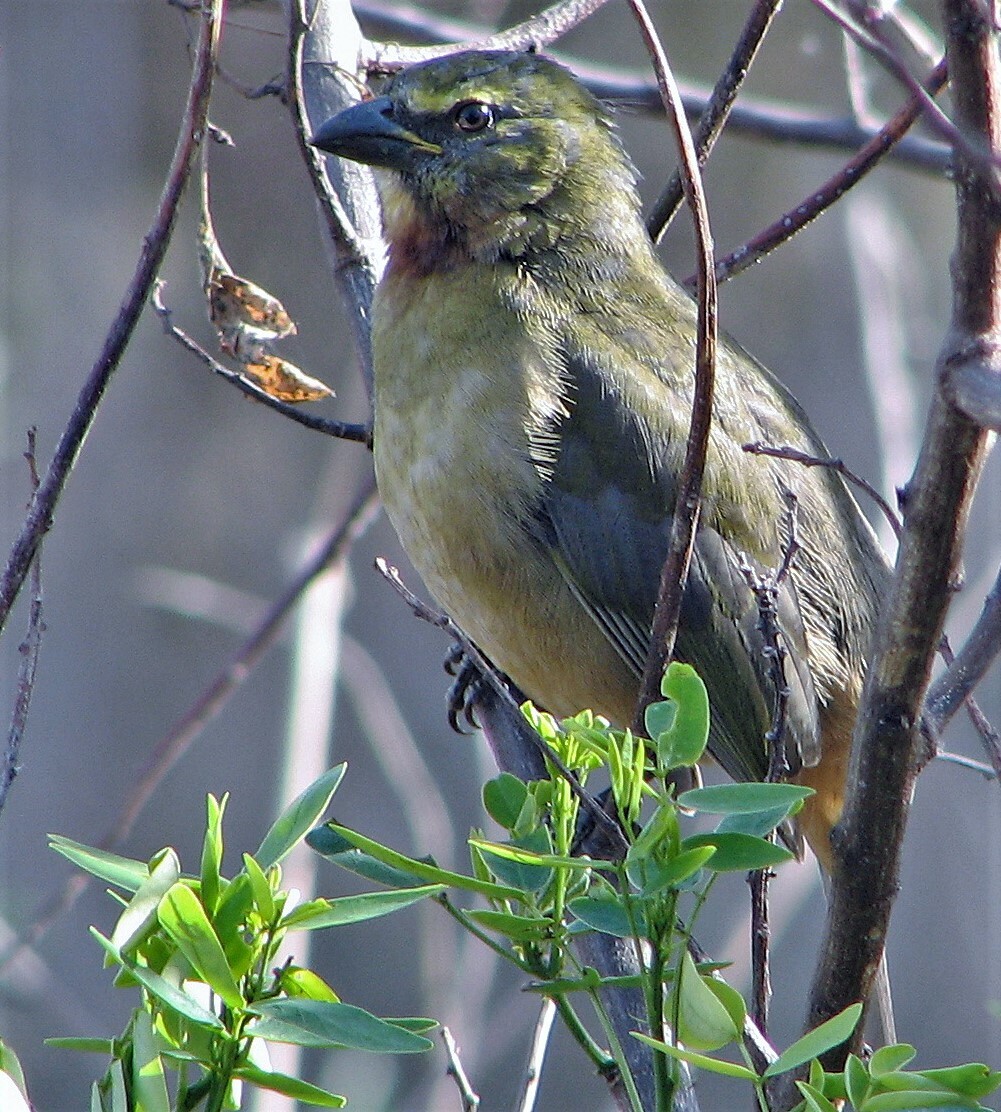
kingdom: Animalia
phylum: Chordata
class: Aves
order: Passeriformes
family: Thraupidae
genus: Saltator
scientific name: Saltator coerulescens
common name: Grayish saltator
